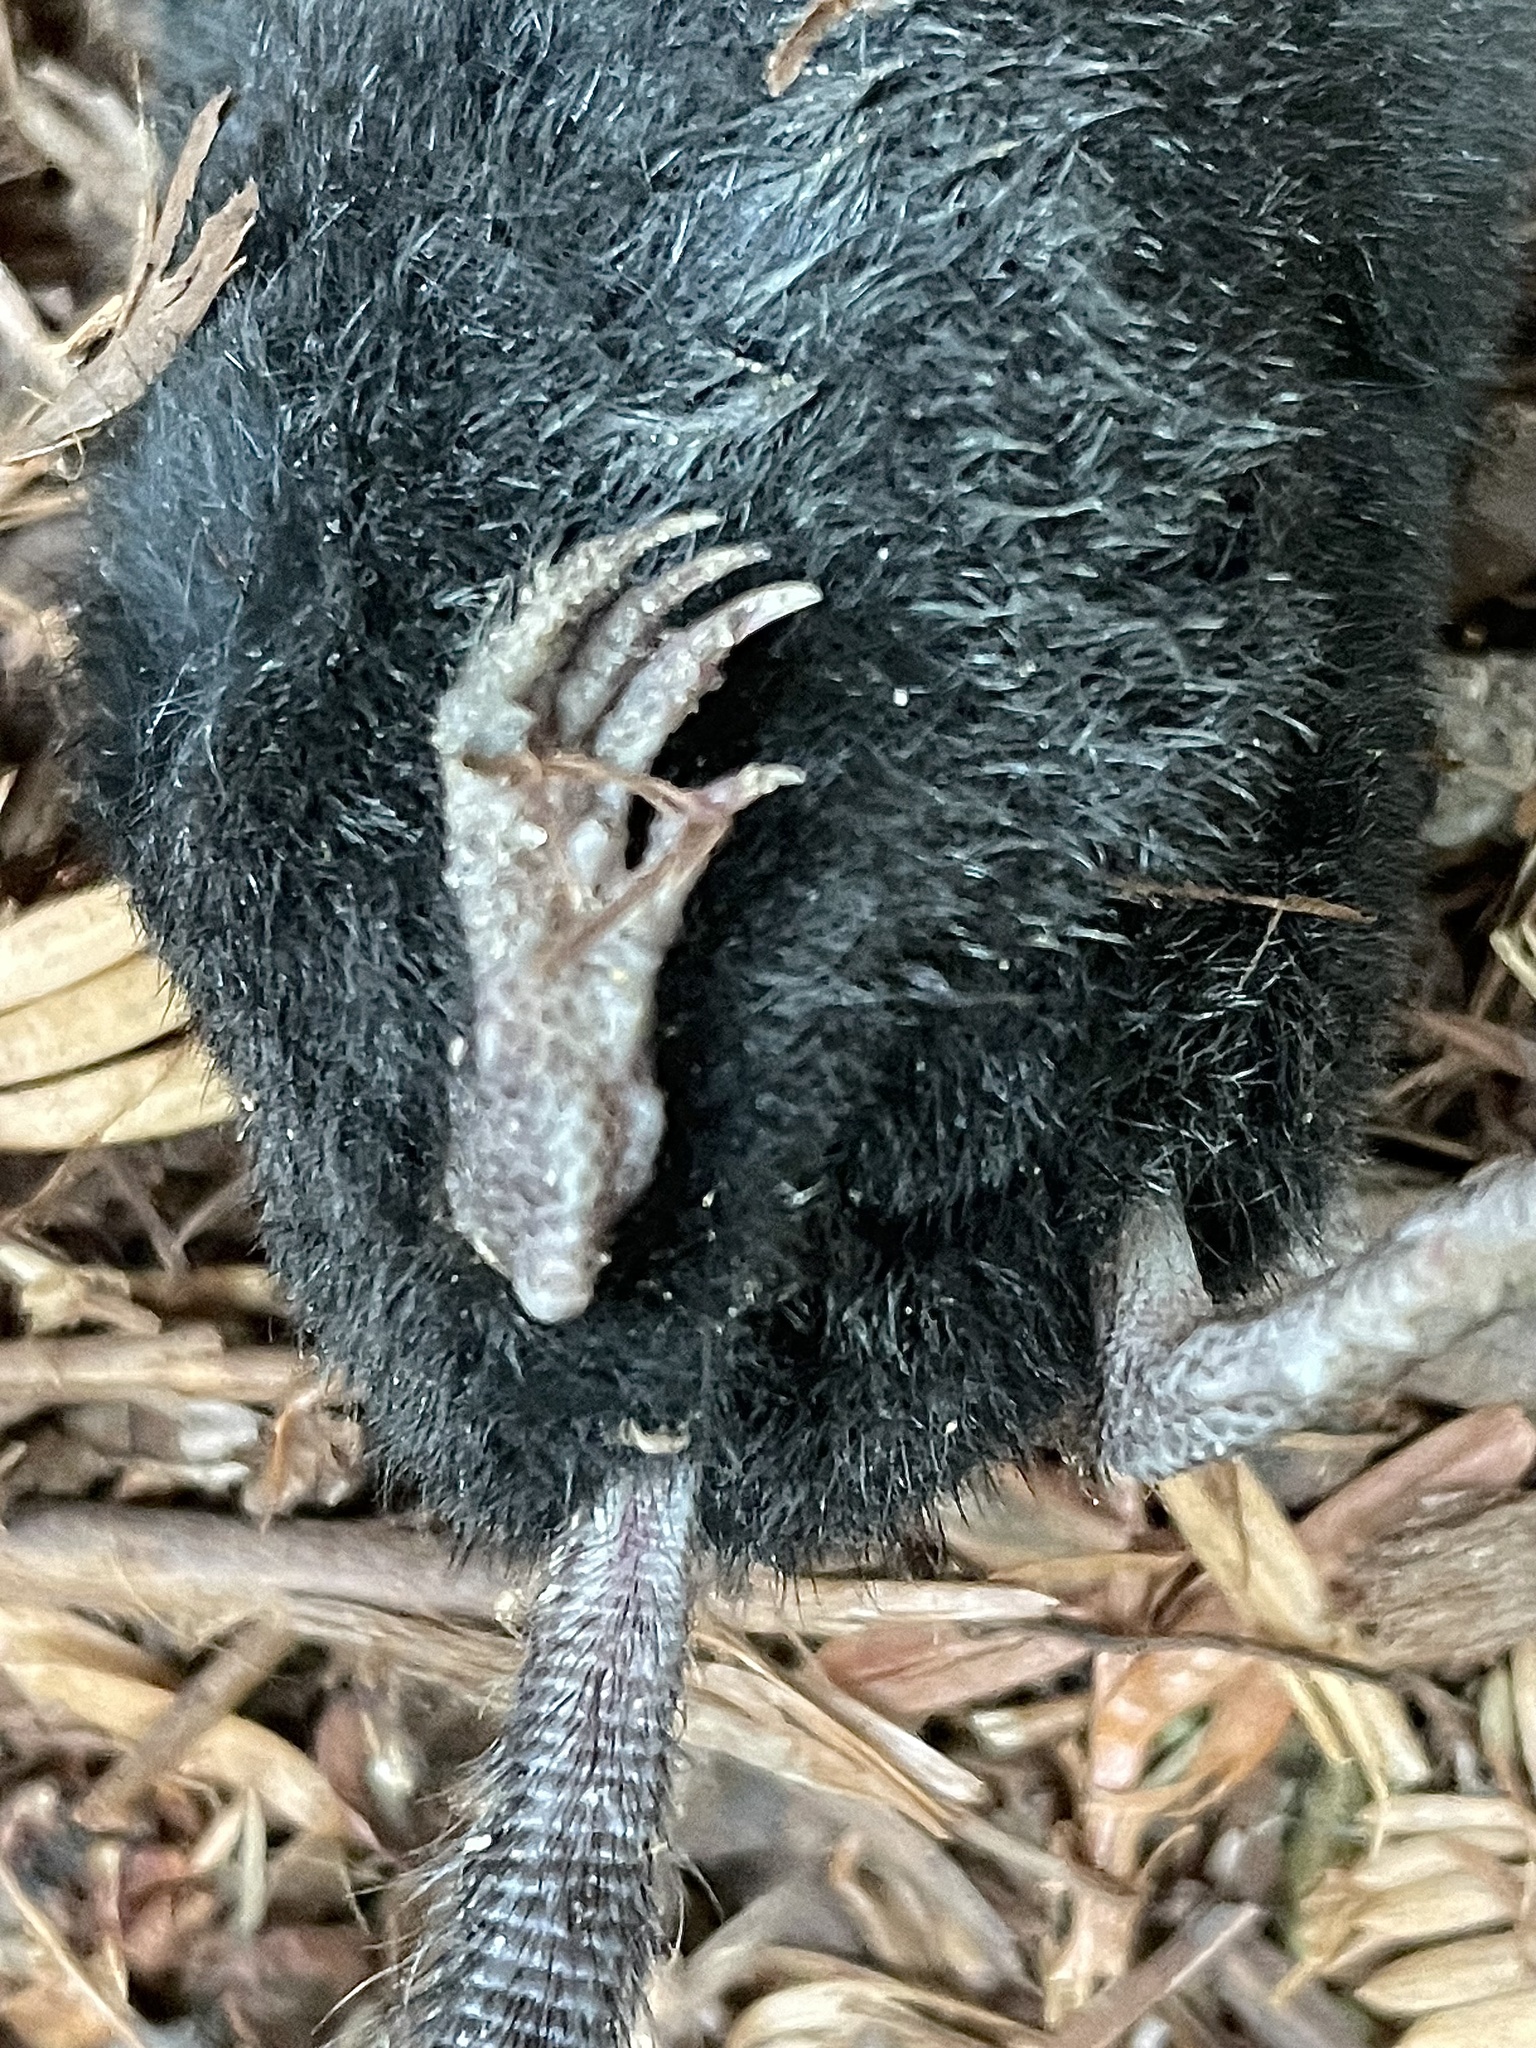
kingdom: Animalia
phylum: Chordata
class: Mammalia
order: Soricomorpha
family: Talpidae
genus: Neurotrichus
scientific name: Neurotrichus gibbsii
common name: American shrew mole
